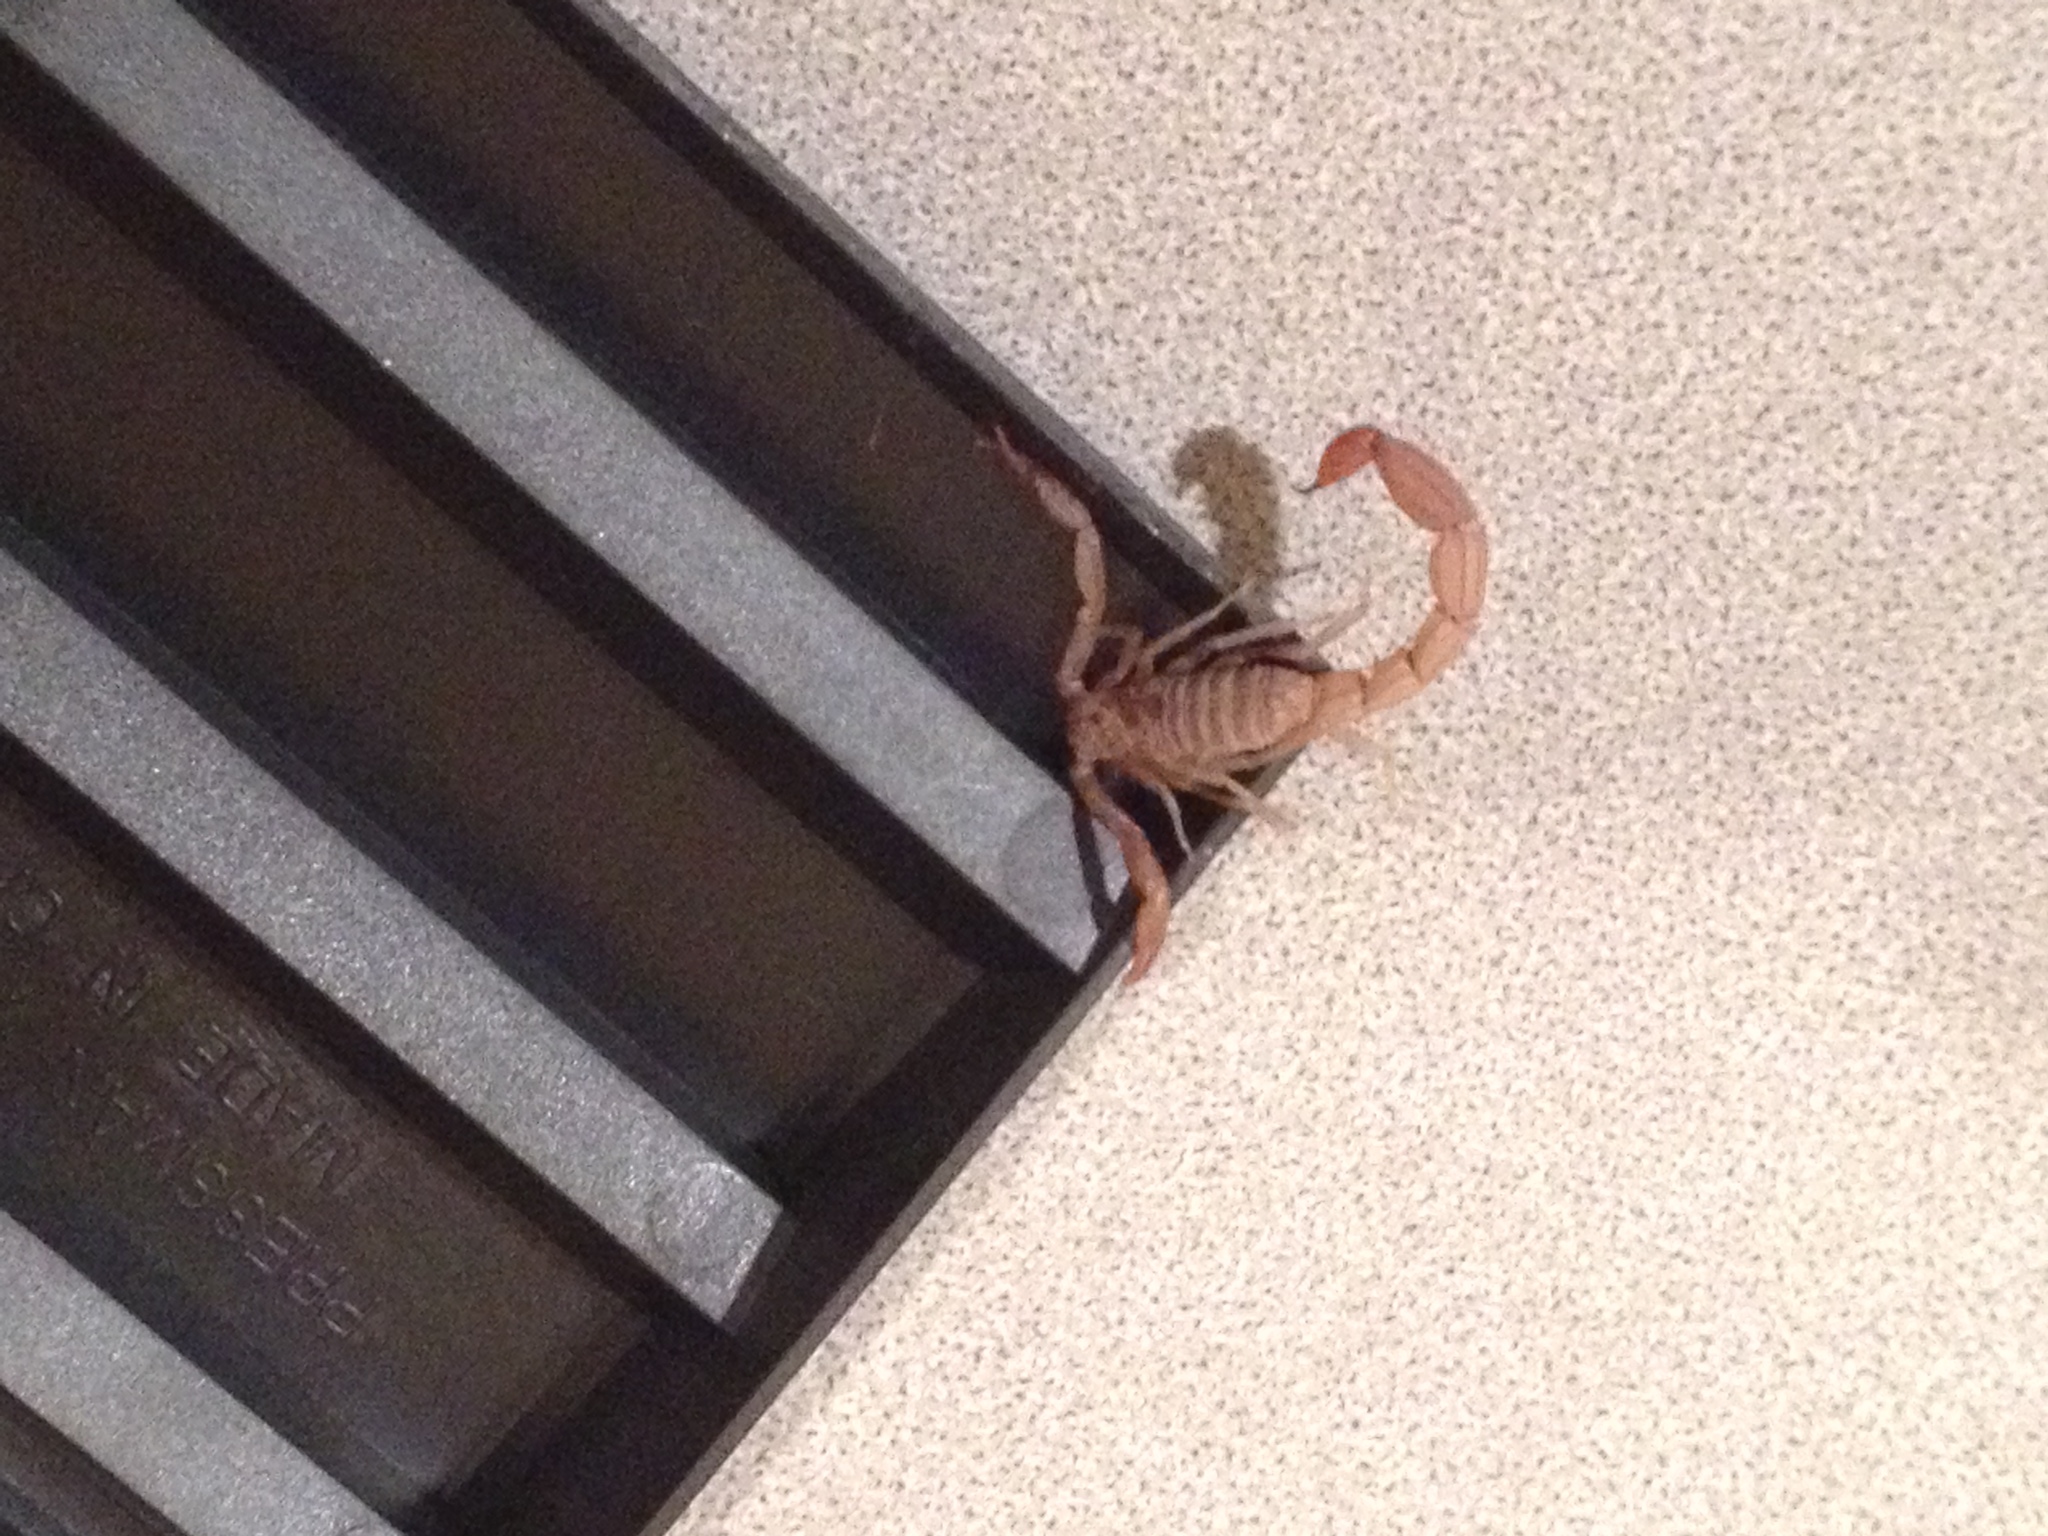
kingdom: Animalia
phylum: Arthropoda
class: Arachnida
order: Scorpiones
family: Vaejovidae
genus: Paravaejovis
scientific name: Paravaejovis confusus
